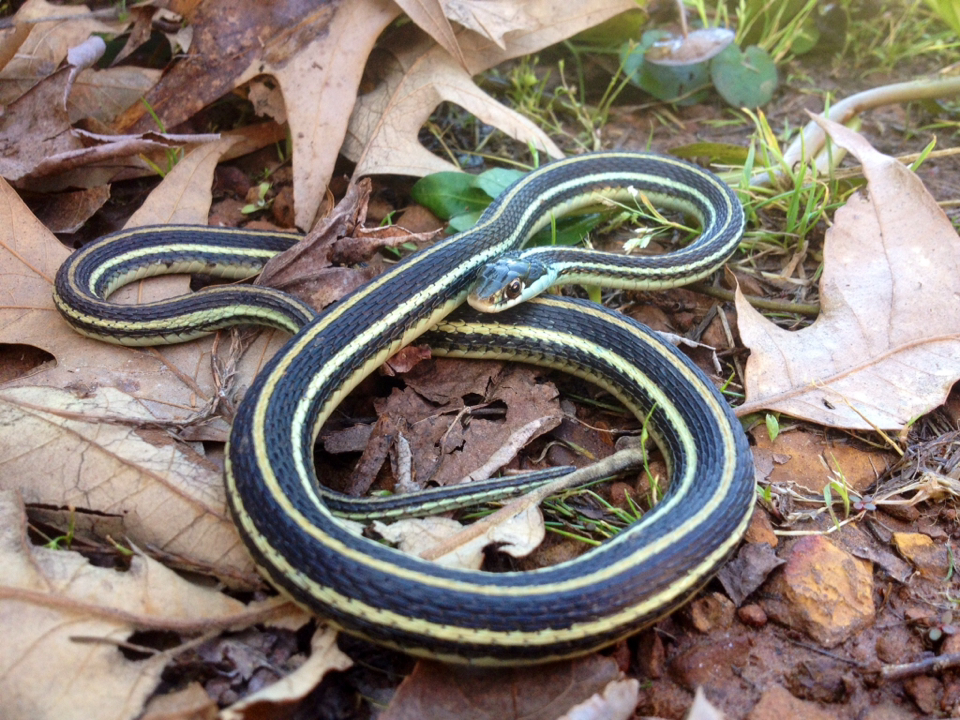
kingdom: Animalia
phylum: Chordata
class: Squamata
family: Colubridae
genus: Thamnophis
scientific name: Thamnophis proximus
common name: Western ribbon snake
